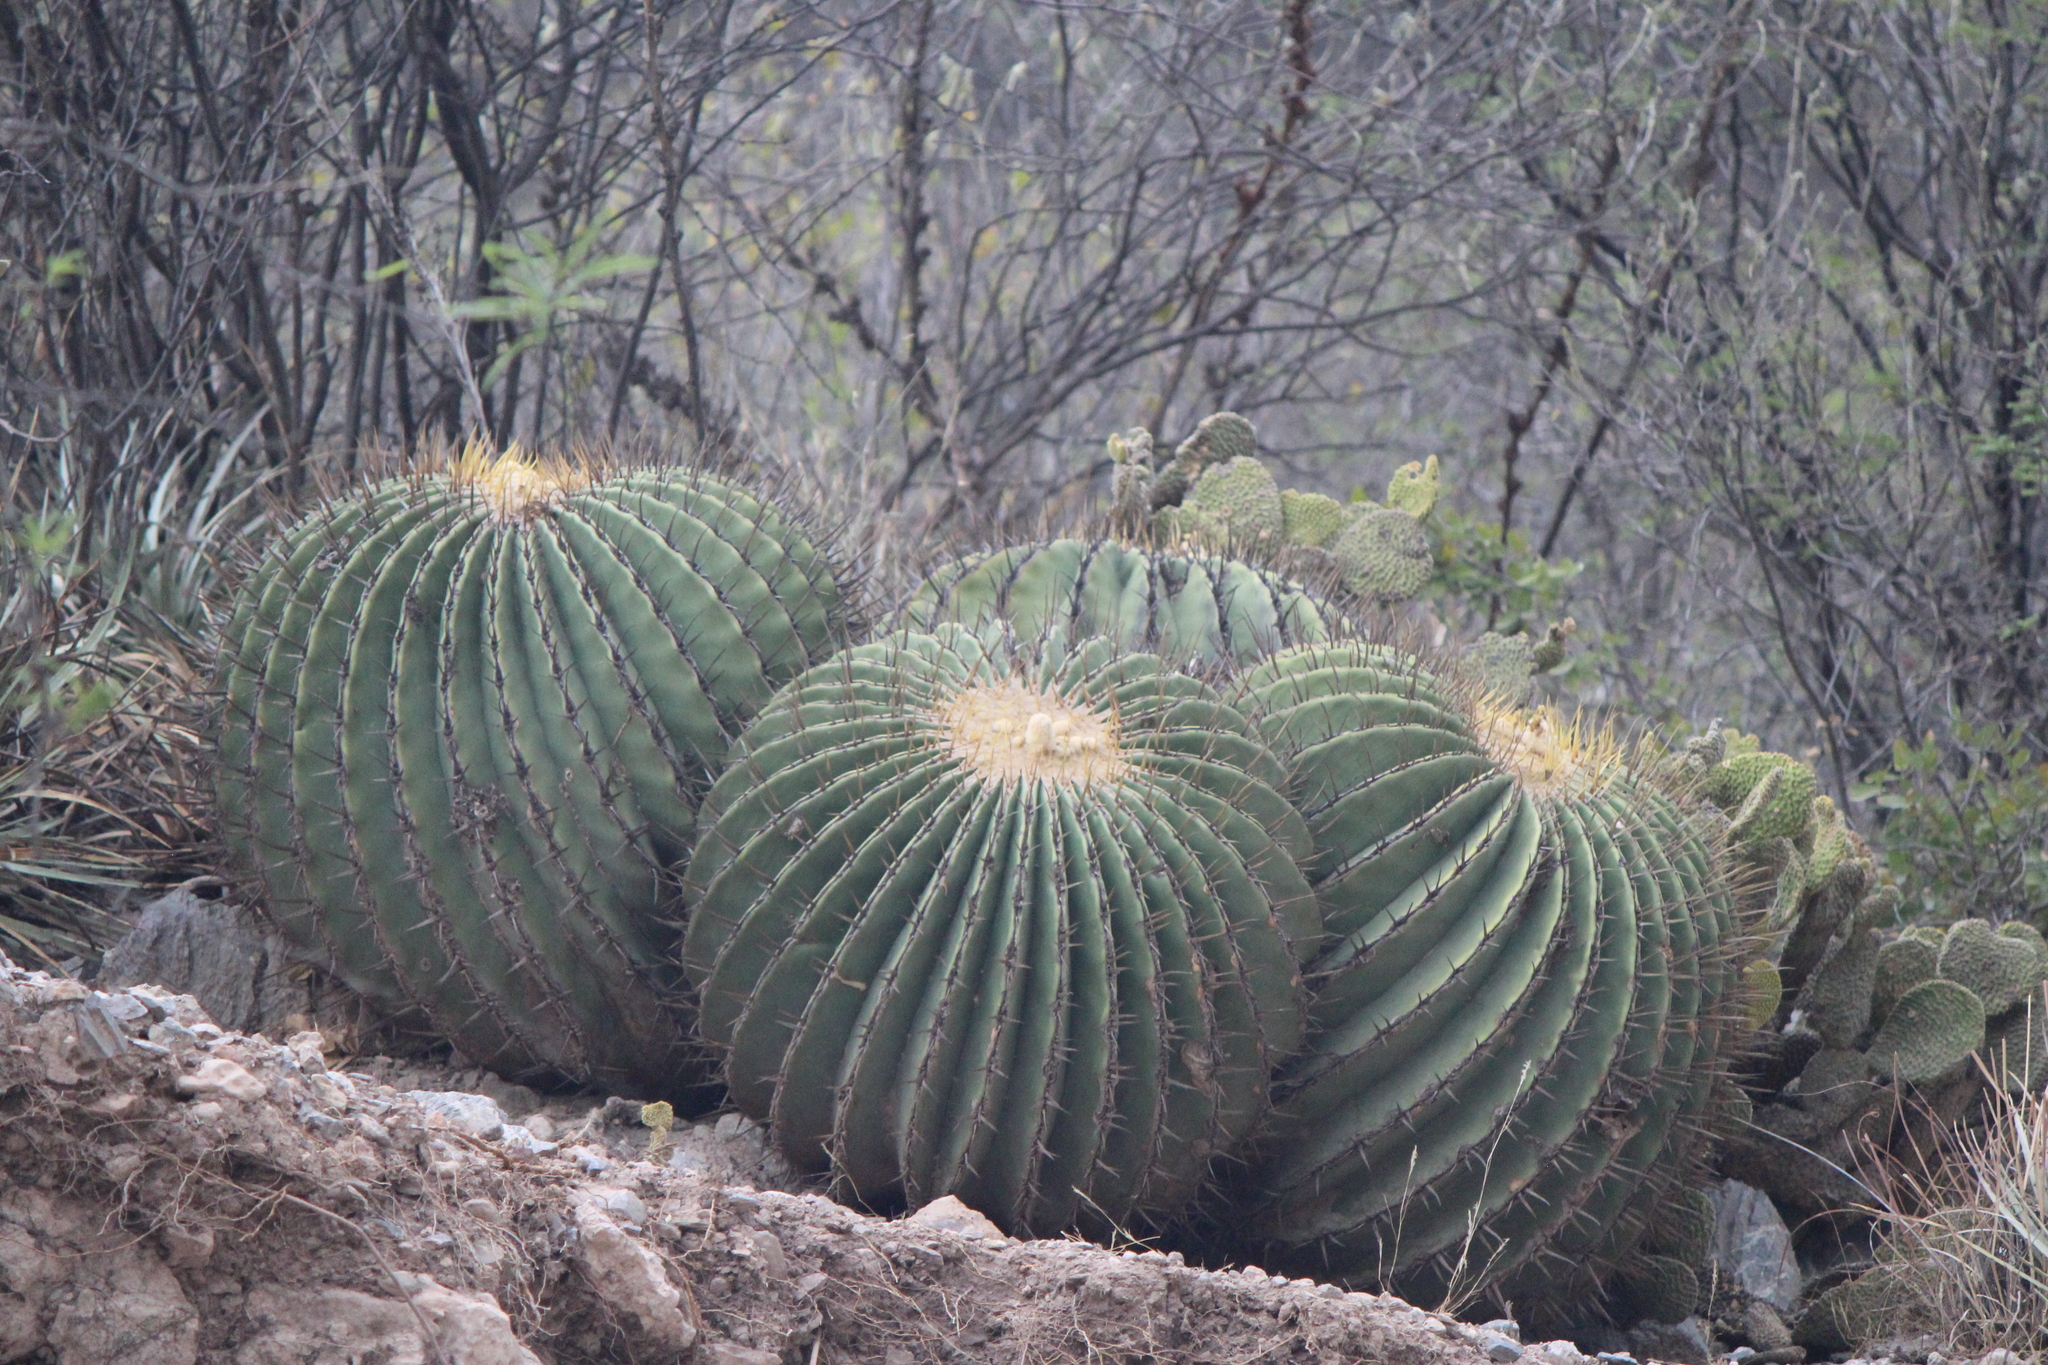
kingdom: Plantae
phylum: Tracheophyta
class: Magnoliopsida
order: Caryophyllales
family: Cactaceae
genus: Echinocactus
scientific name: Echinocactus platyacanthus
